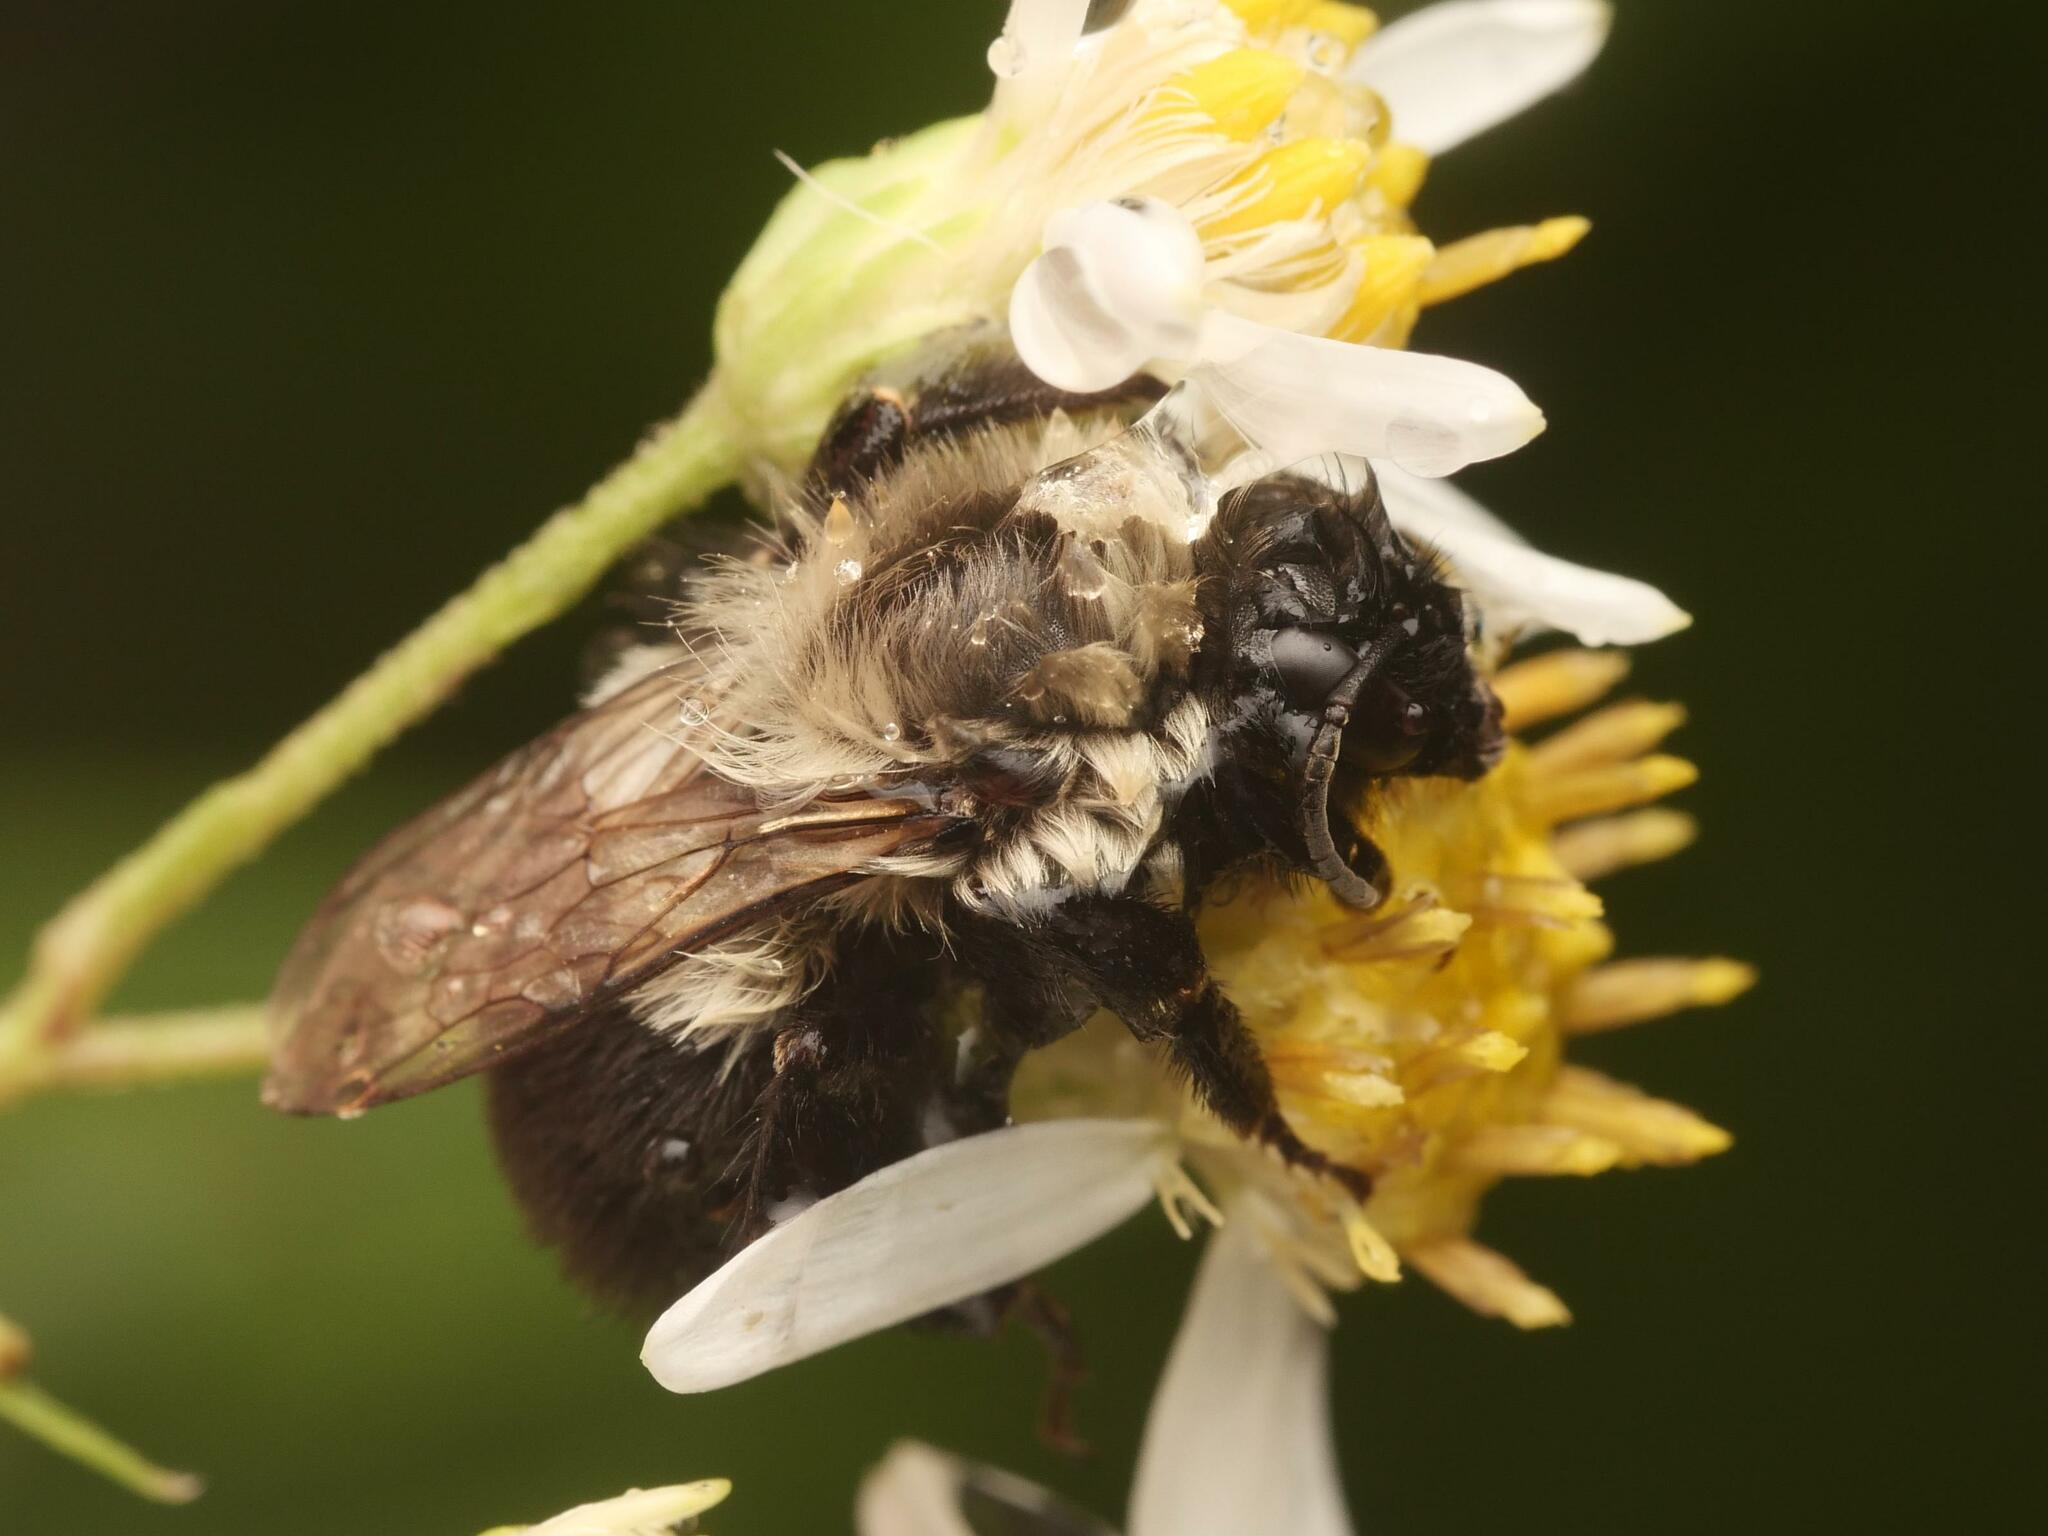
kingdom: Animalia
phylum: Arthropoda
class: Insecta
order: Hymenoptera
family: Apidae
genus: Bombus
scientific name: Bombus impatiens
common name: Common eastern bumble bee
